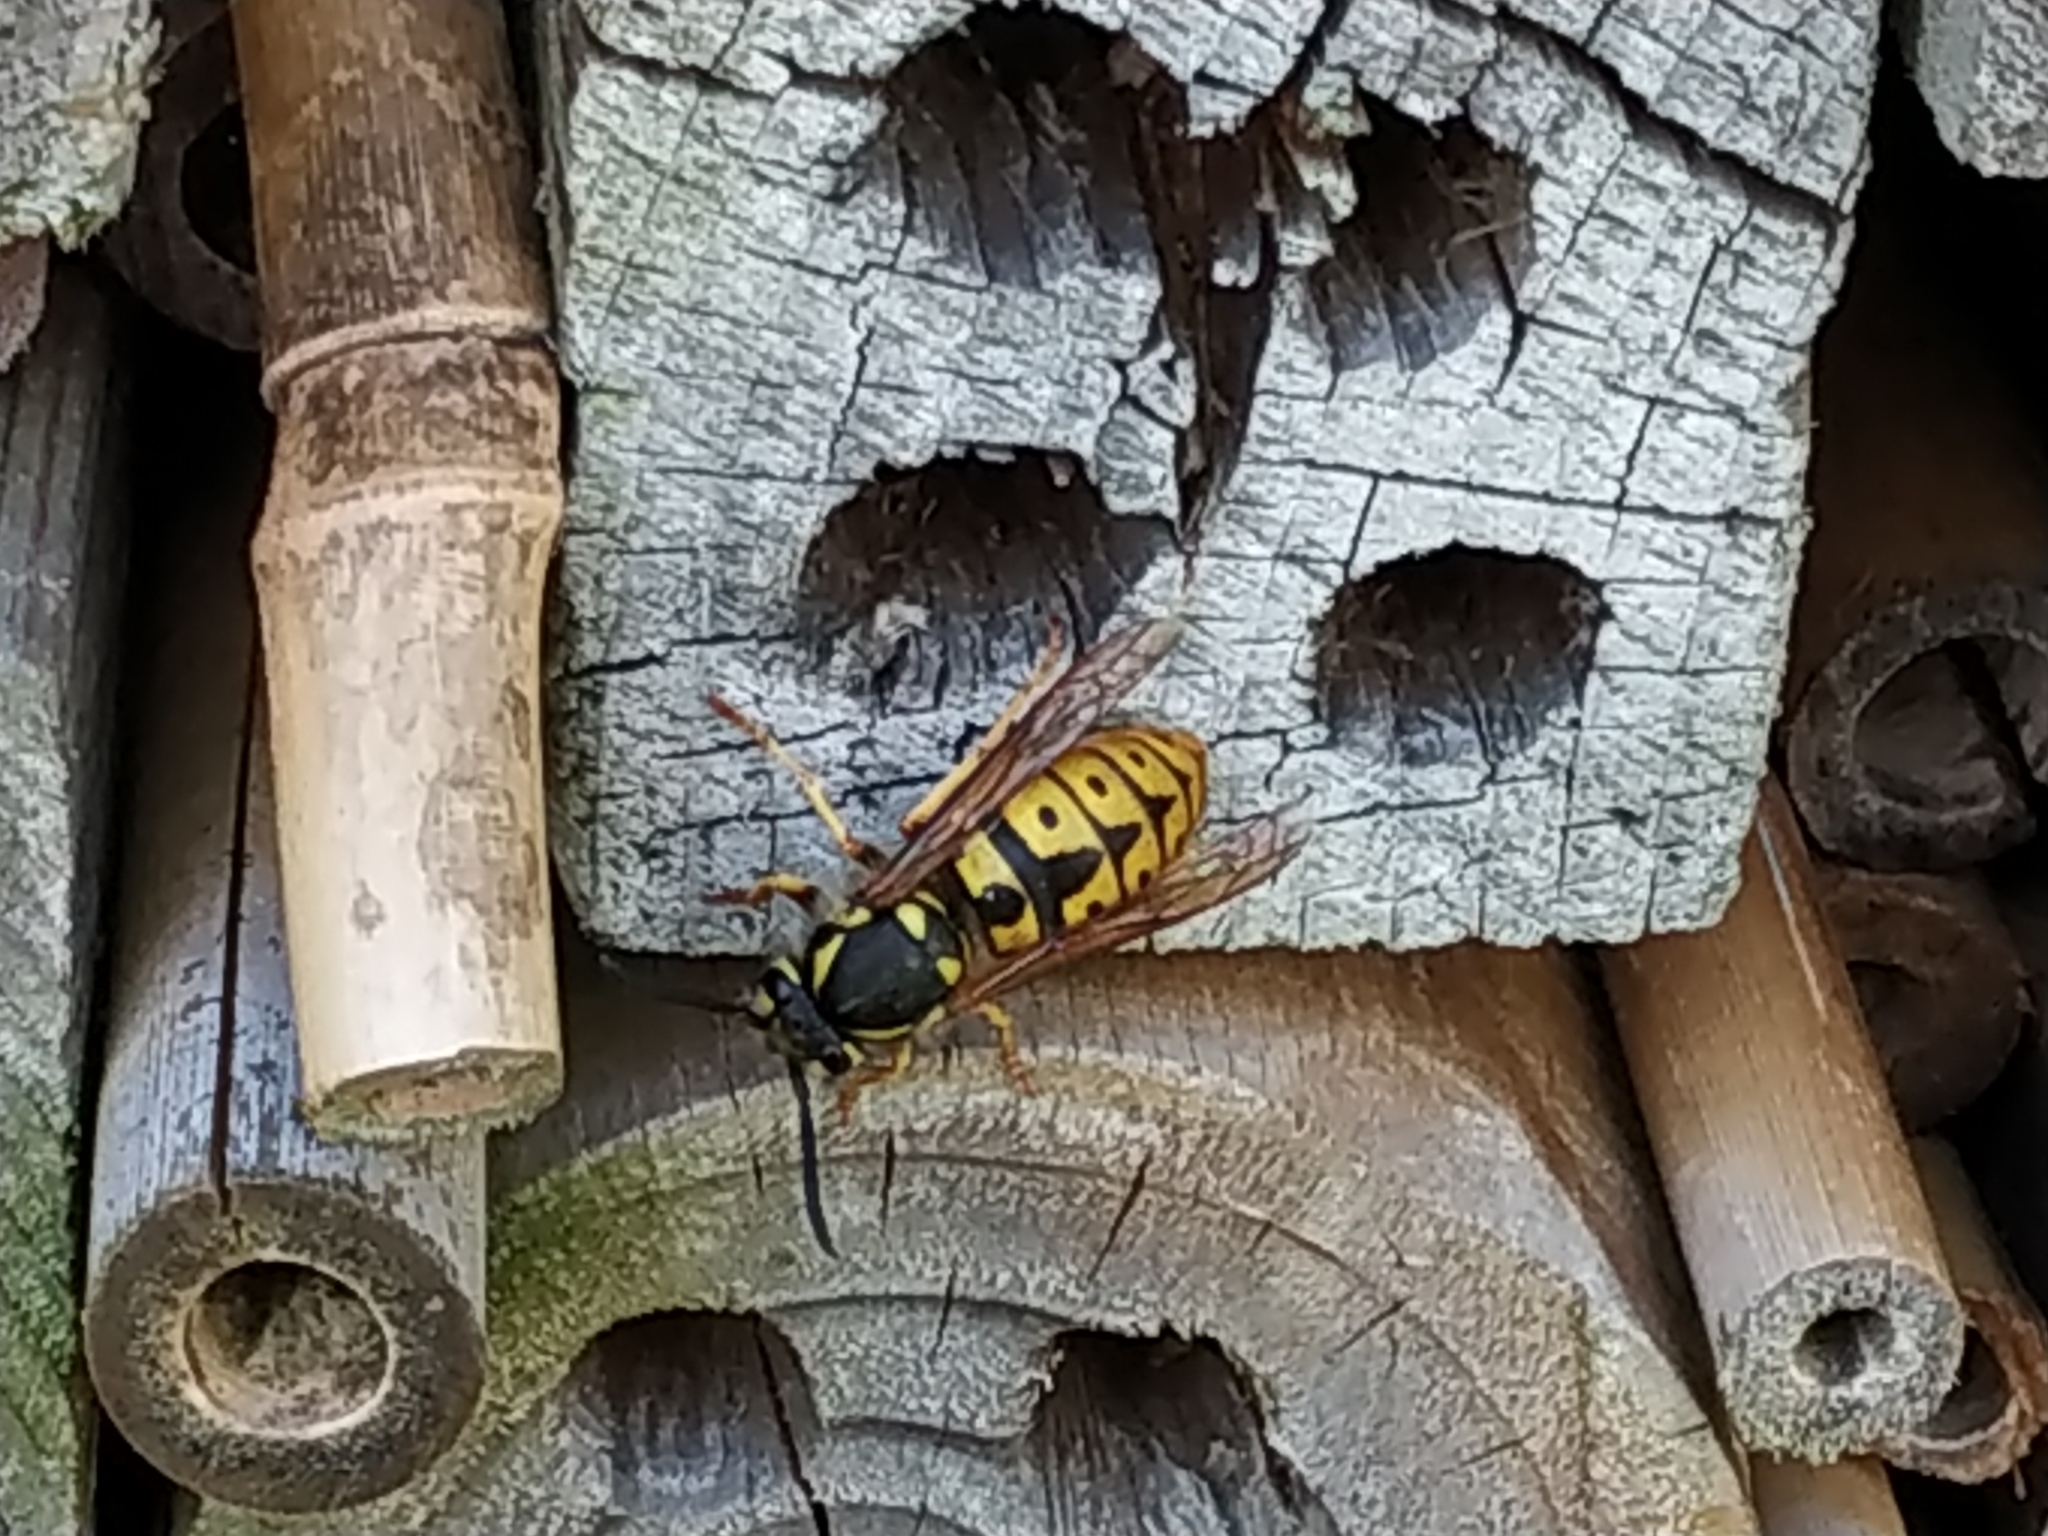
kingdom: Animalia
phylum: Arthropoda
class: Insecta
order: Hymenoptera
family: Vespidae
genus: Vespula
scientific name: Vespula germanica
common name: German wasp
